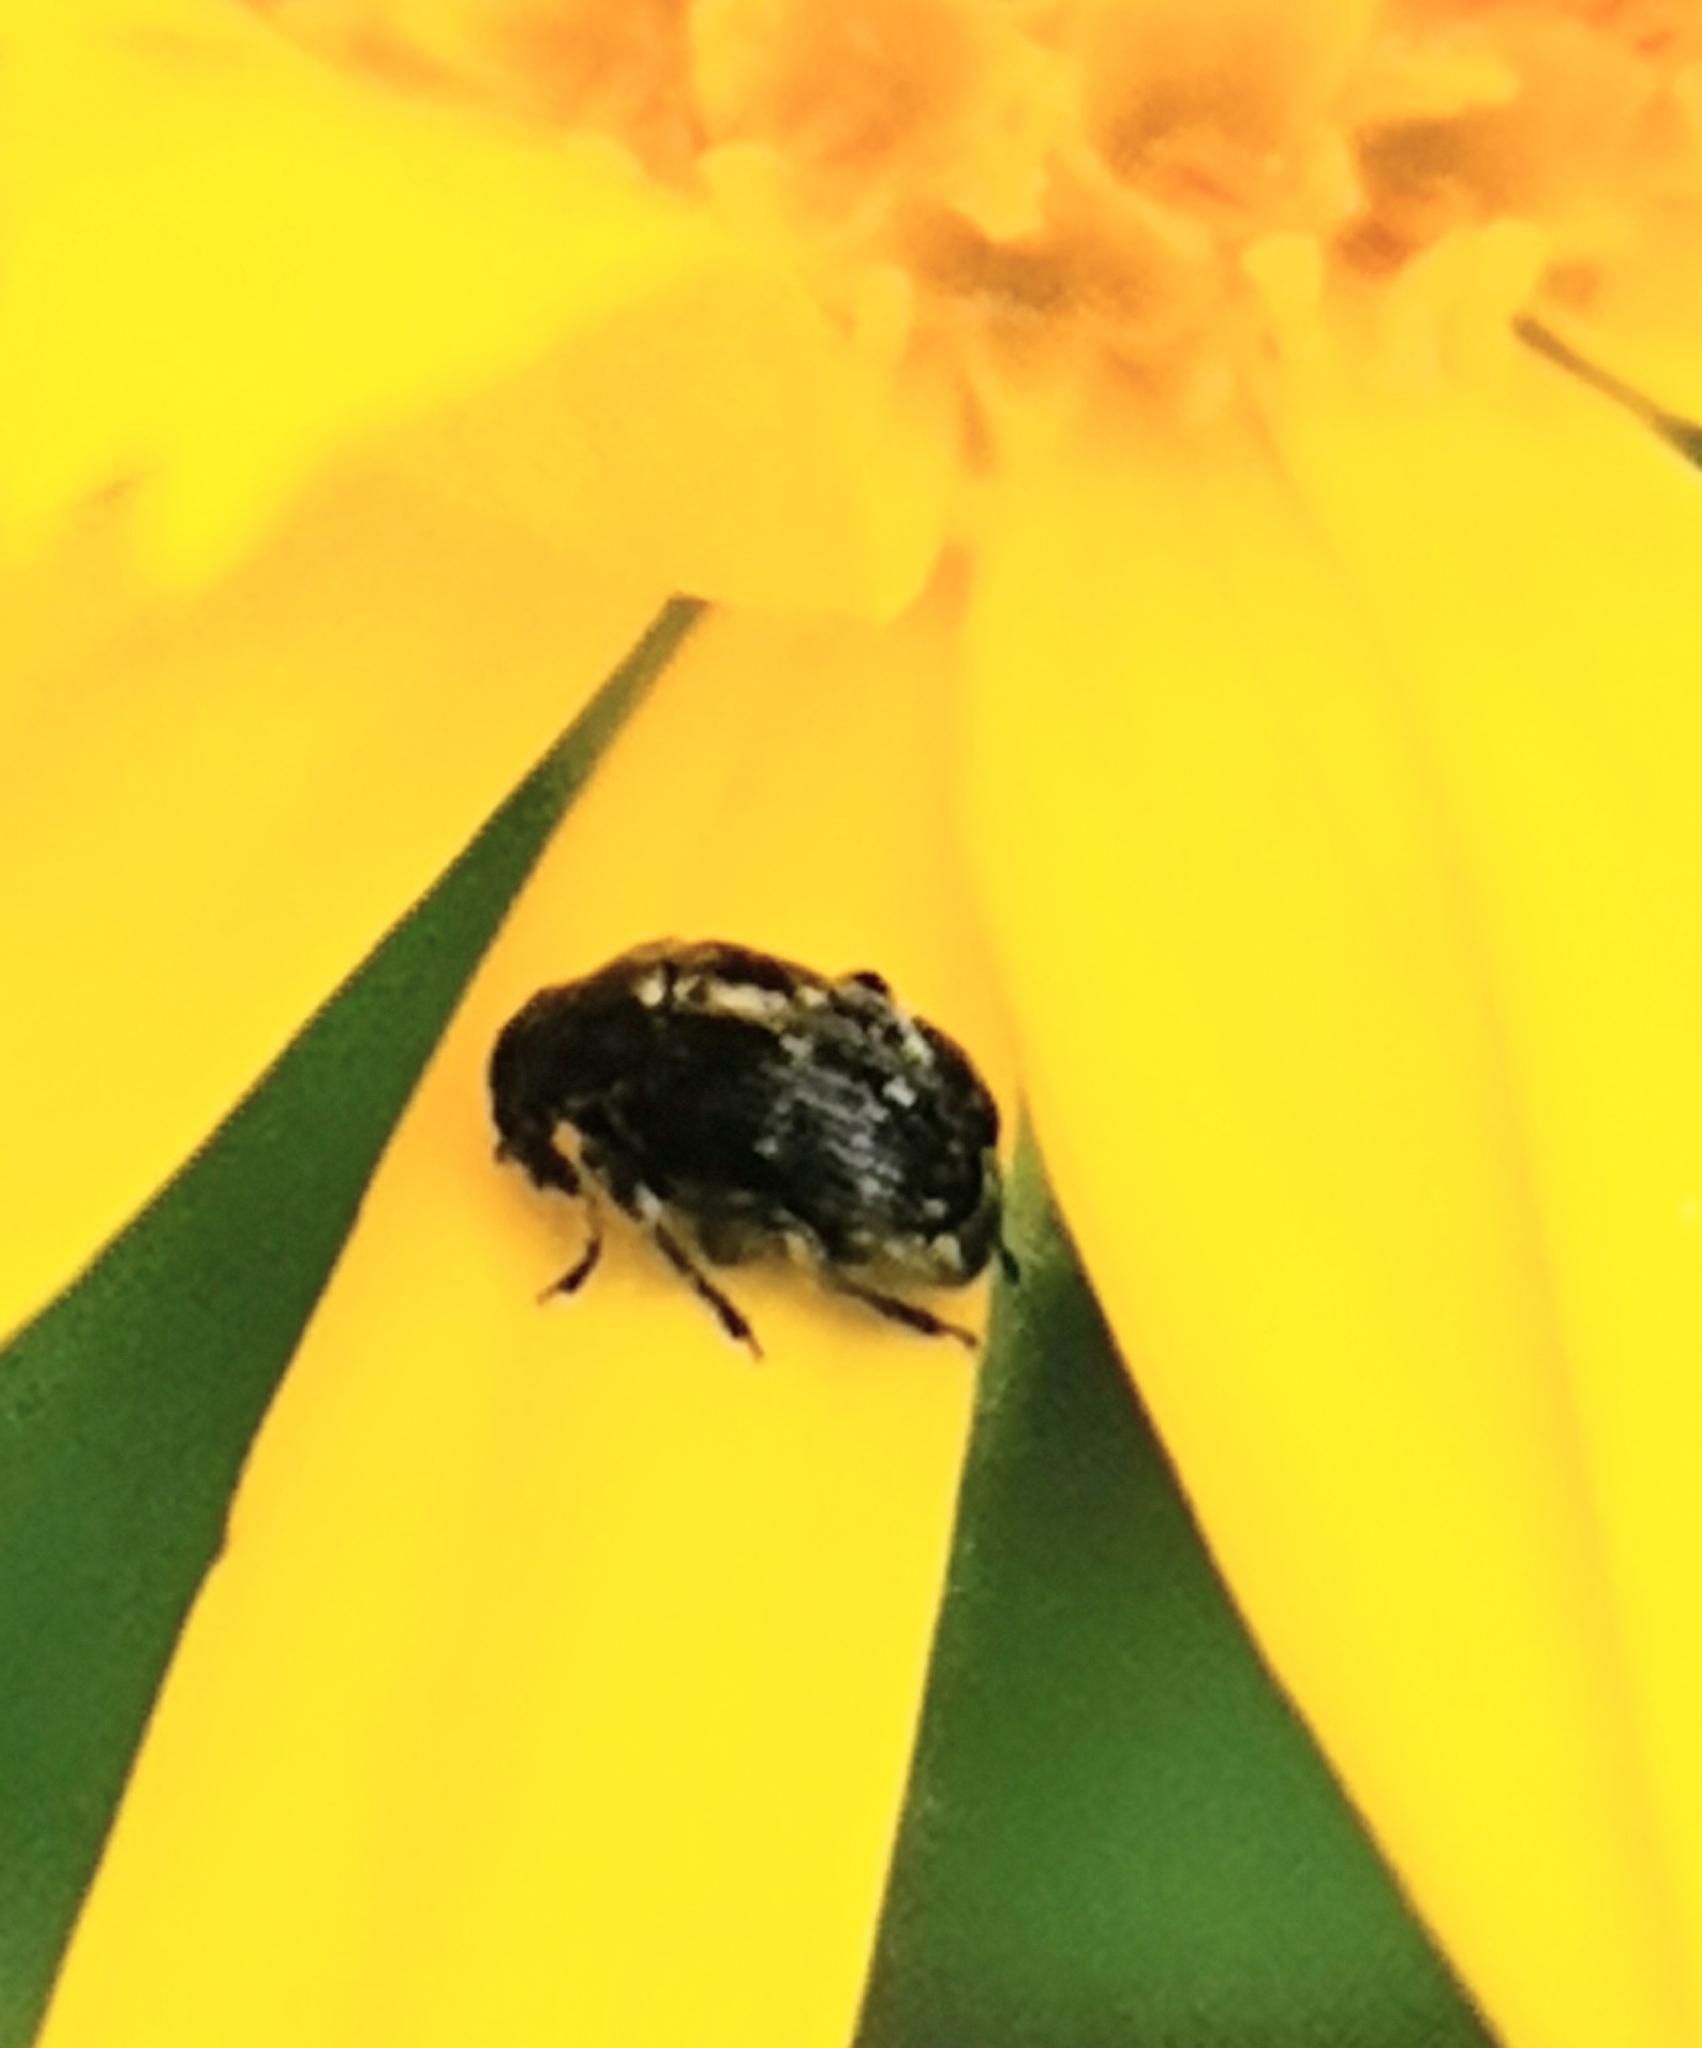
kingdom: Animalia
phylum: Arthropoda
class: Insecta
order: Coleoptera
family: Chrysomelidae
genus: Bruchus
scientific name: Bruchus atomarius
